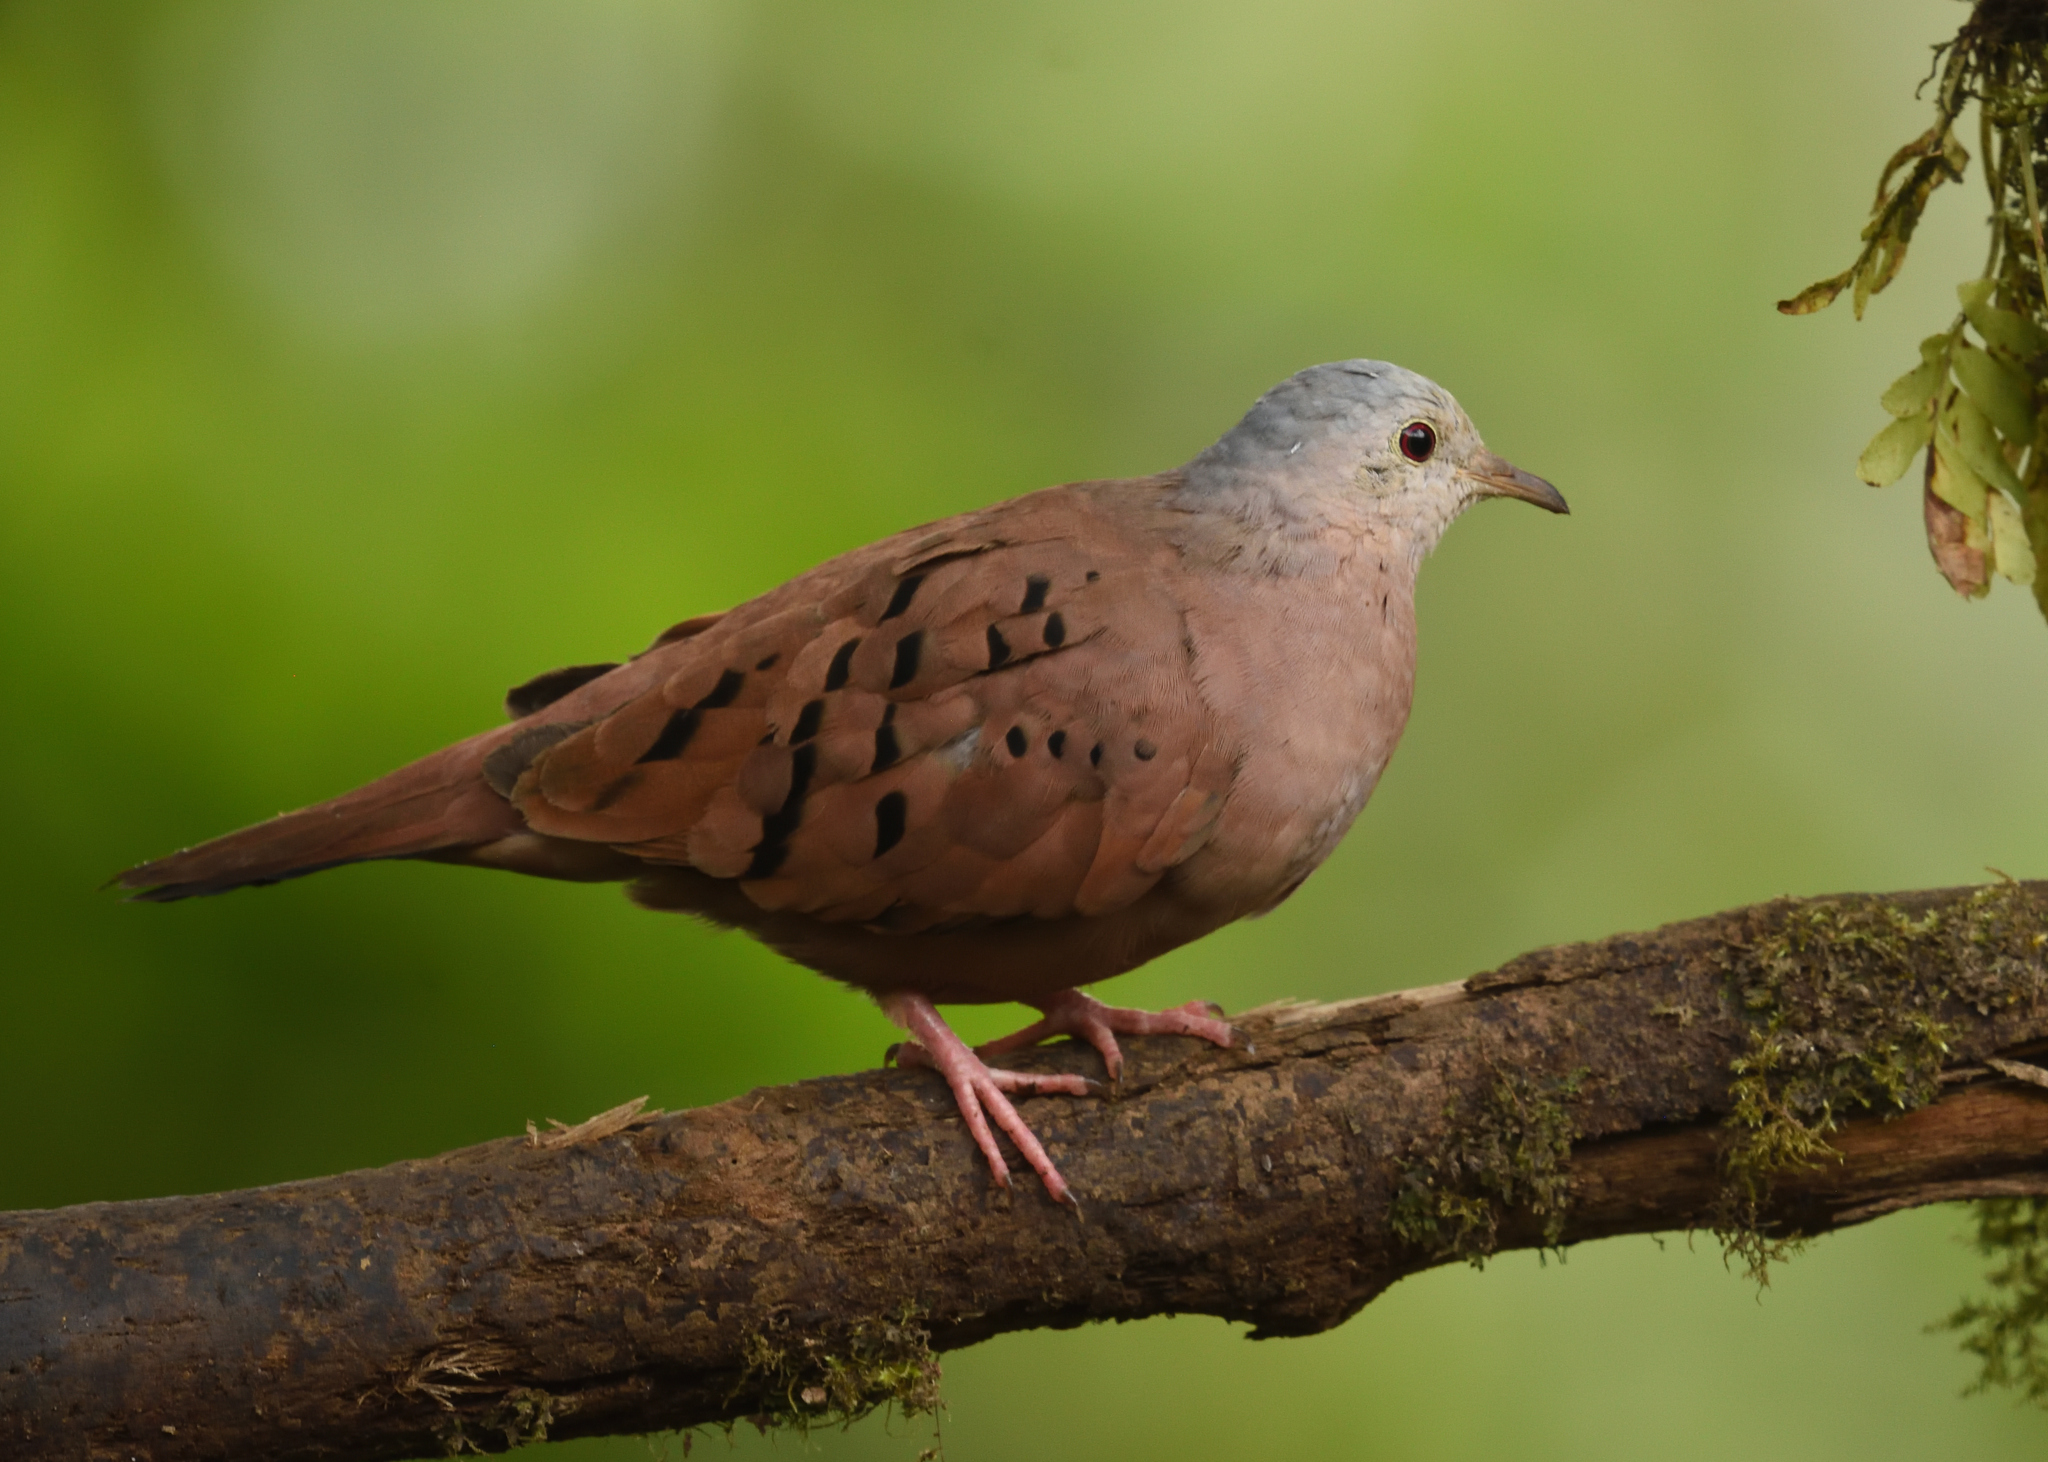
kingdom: Animalia
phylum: Chordata
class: Aves
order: Columbiformes
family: Columbidae
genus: Columbina
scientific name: Columbina talpacoti
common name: Ruddy ground dove
